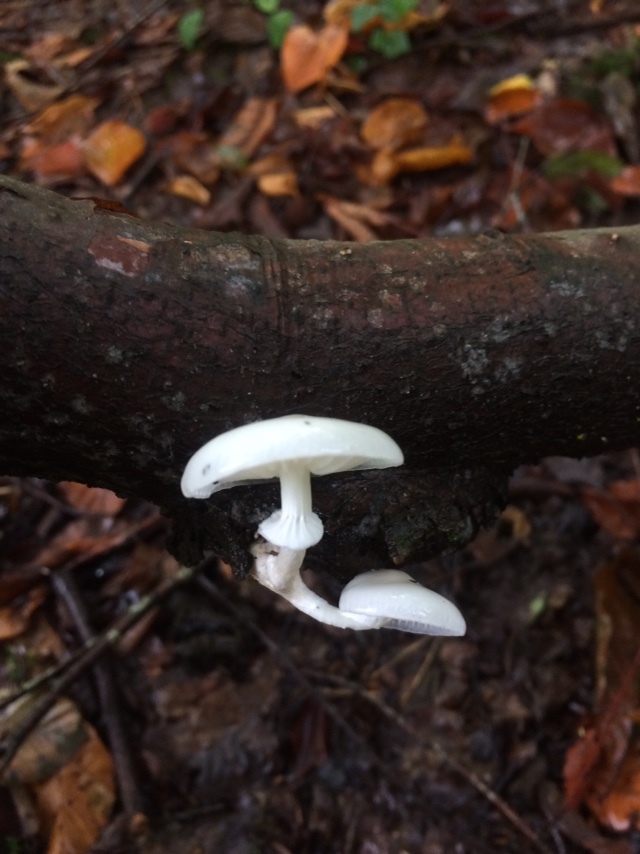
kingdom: Fungi
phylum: Basidiomycota
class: Agaricomycetes
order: Agaricales
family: Physalacriaceae
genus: Mucidula
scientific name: Mucidula mucida
